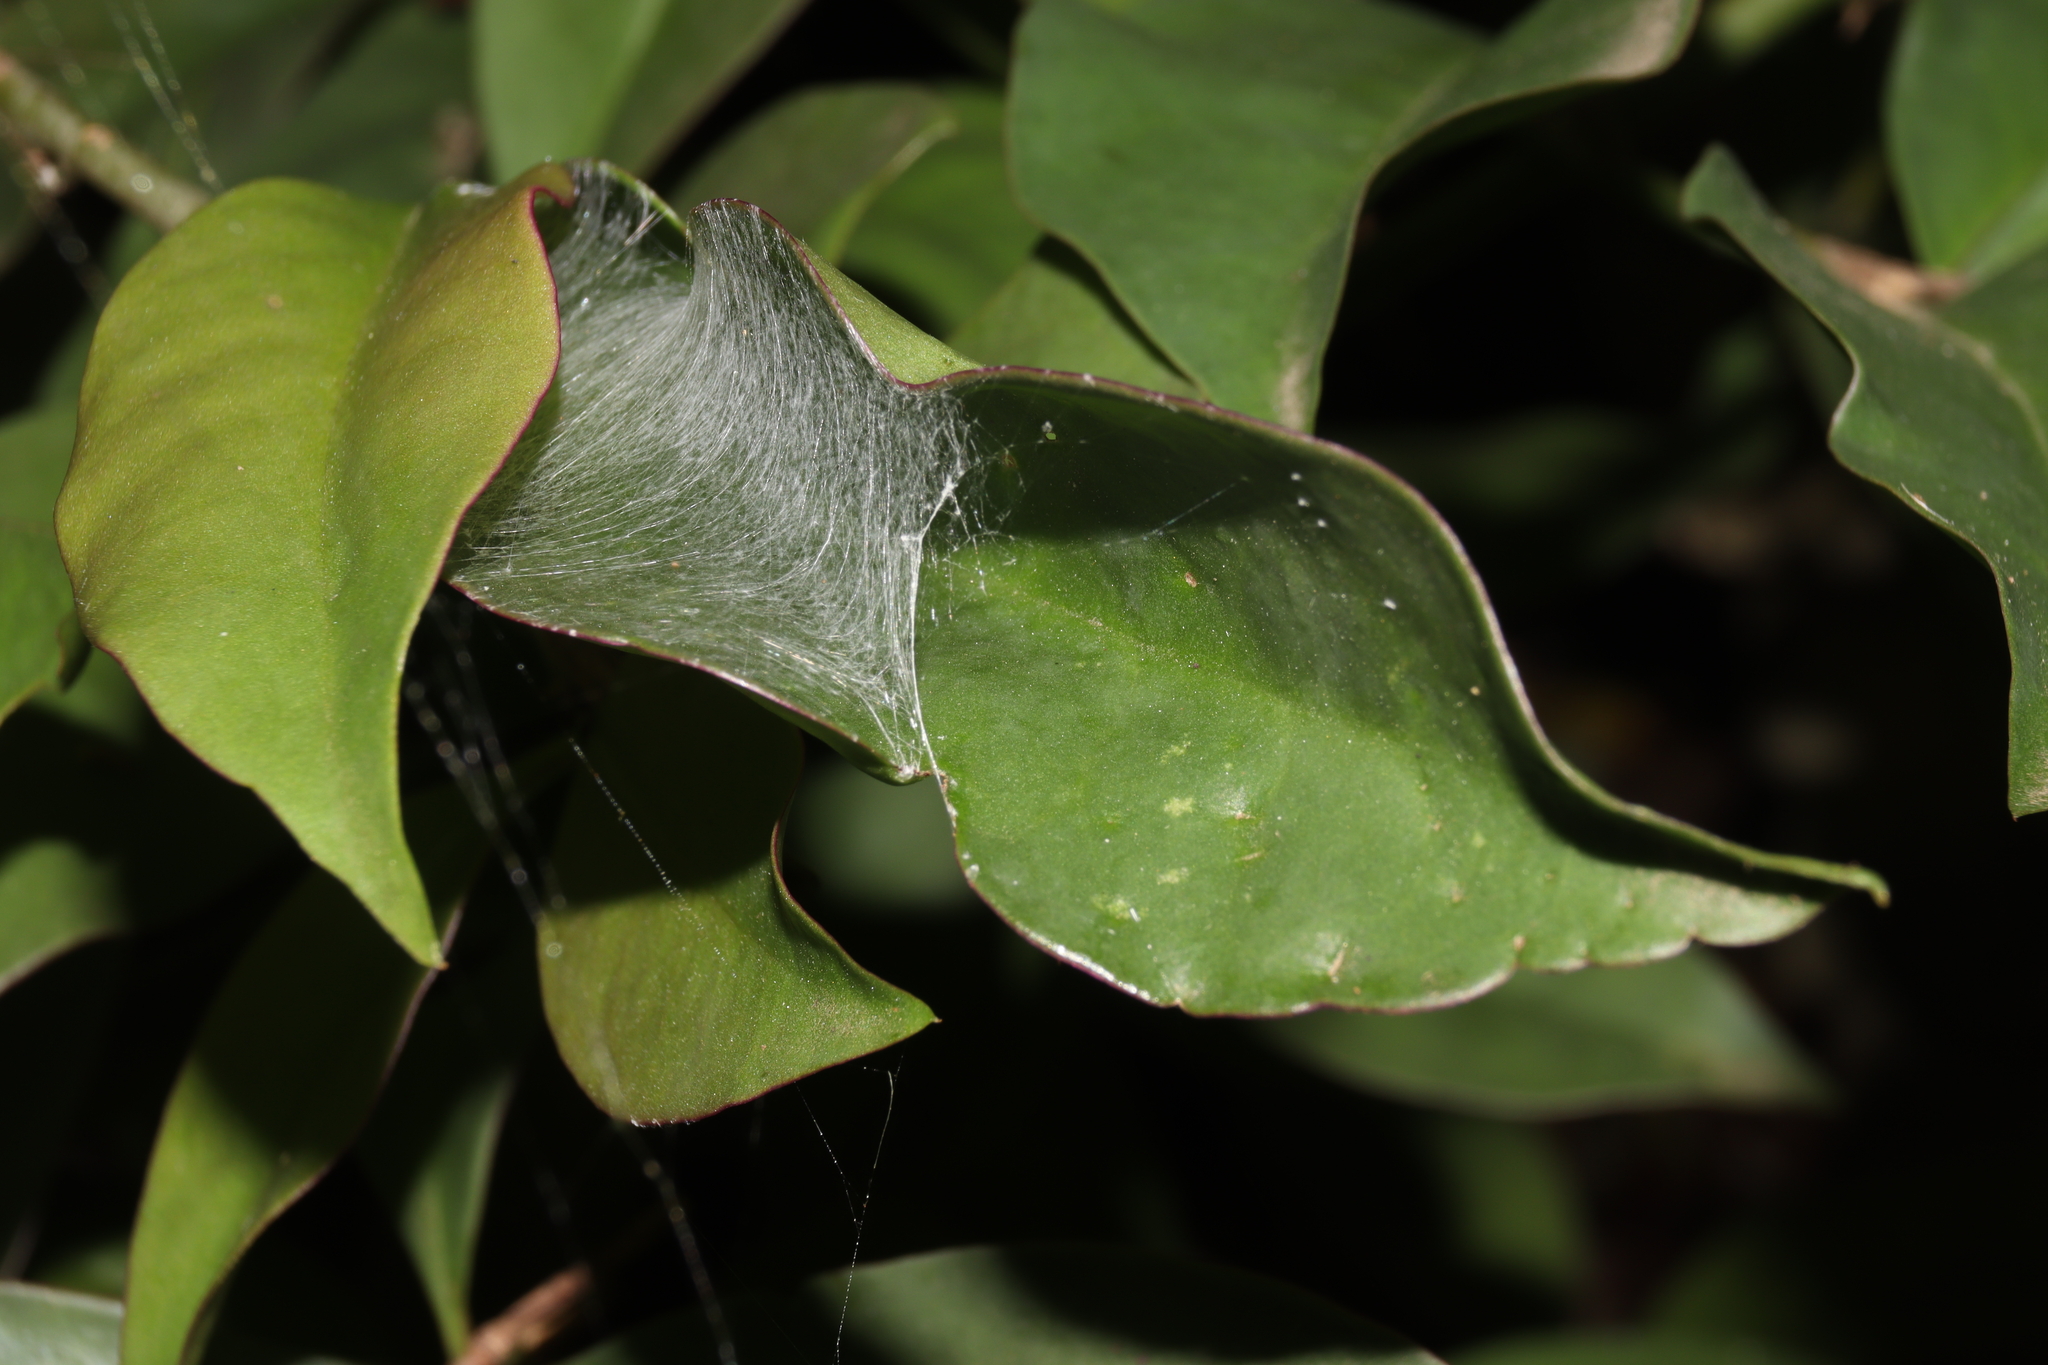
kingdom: Animalia
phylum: Arthropoda
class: Arachnida
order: Araneae
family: Araneidae
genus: Alpaida
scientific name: Alpaida truncata
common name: Orb weavers
